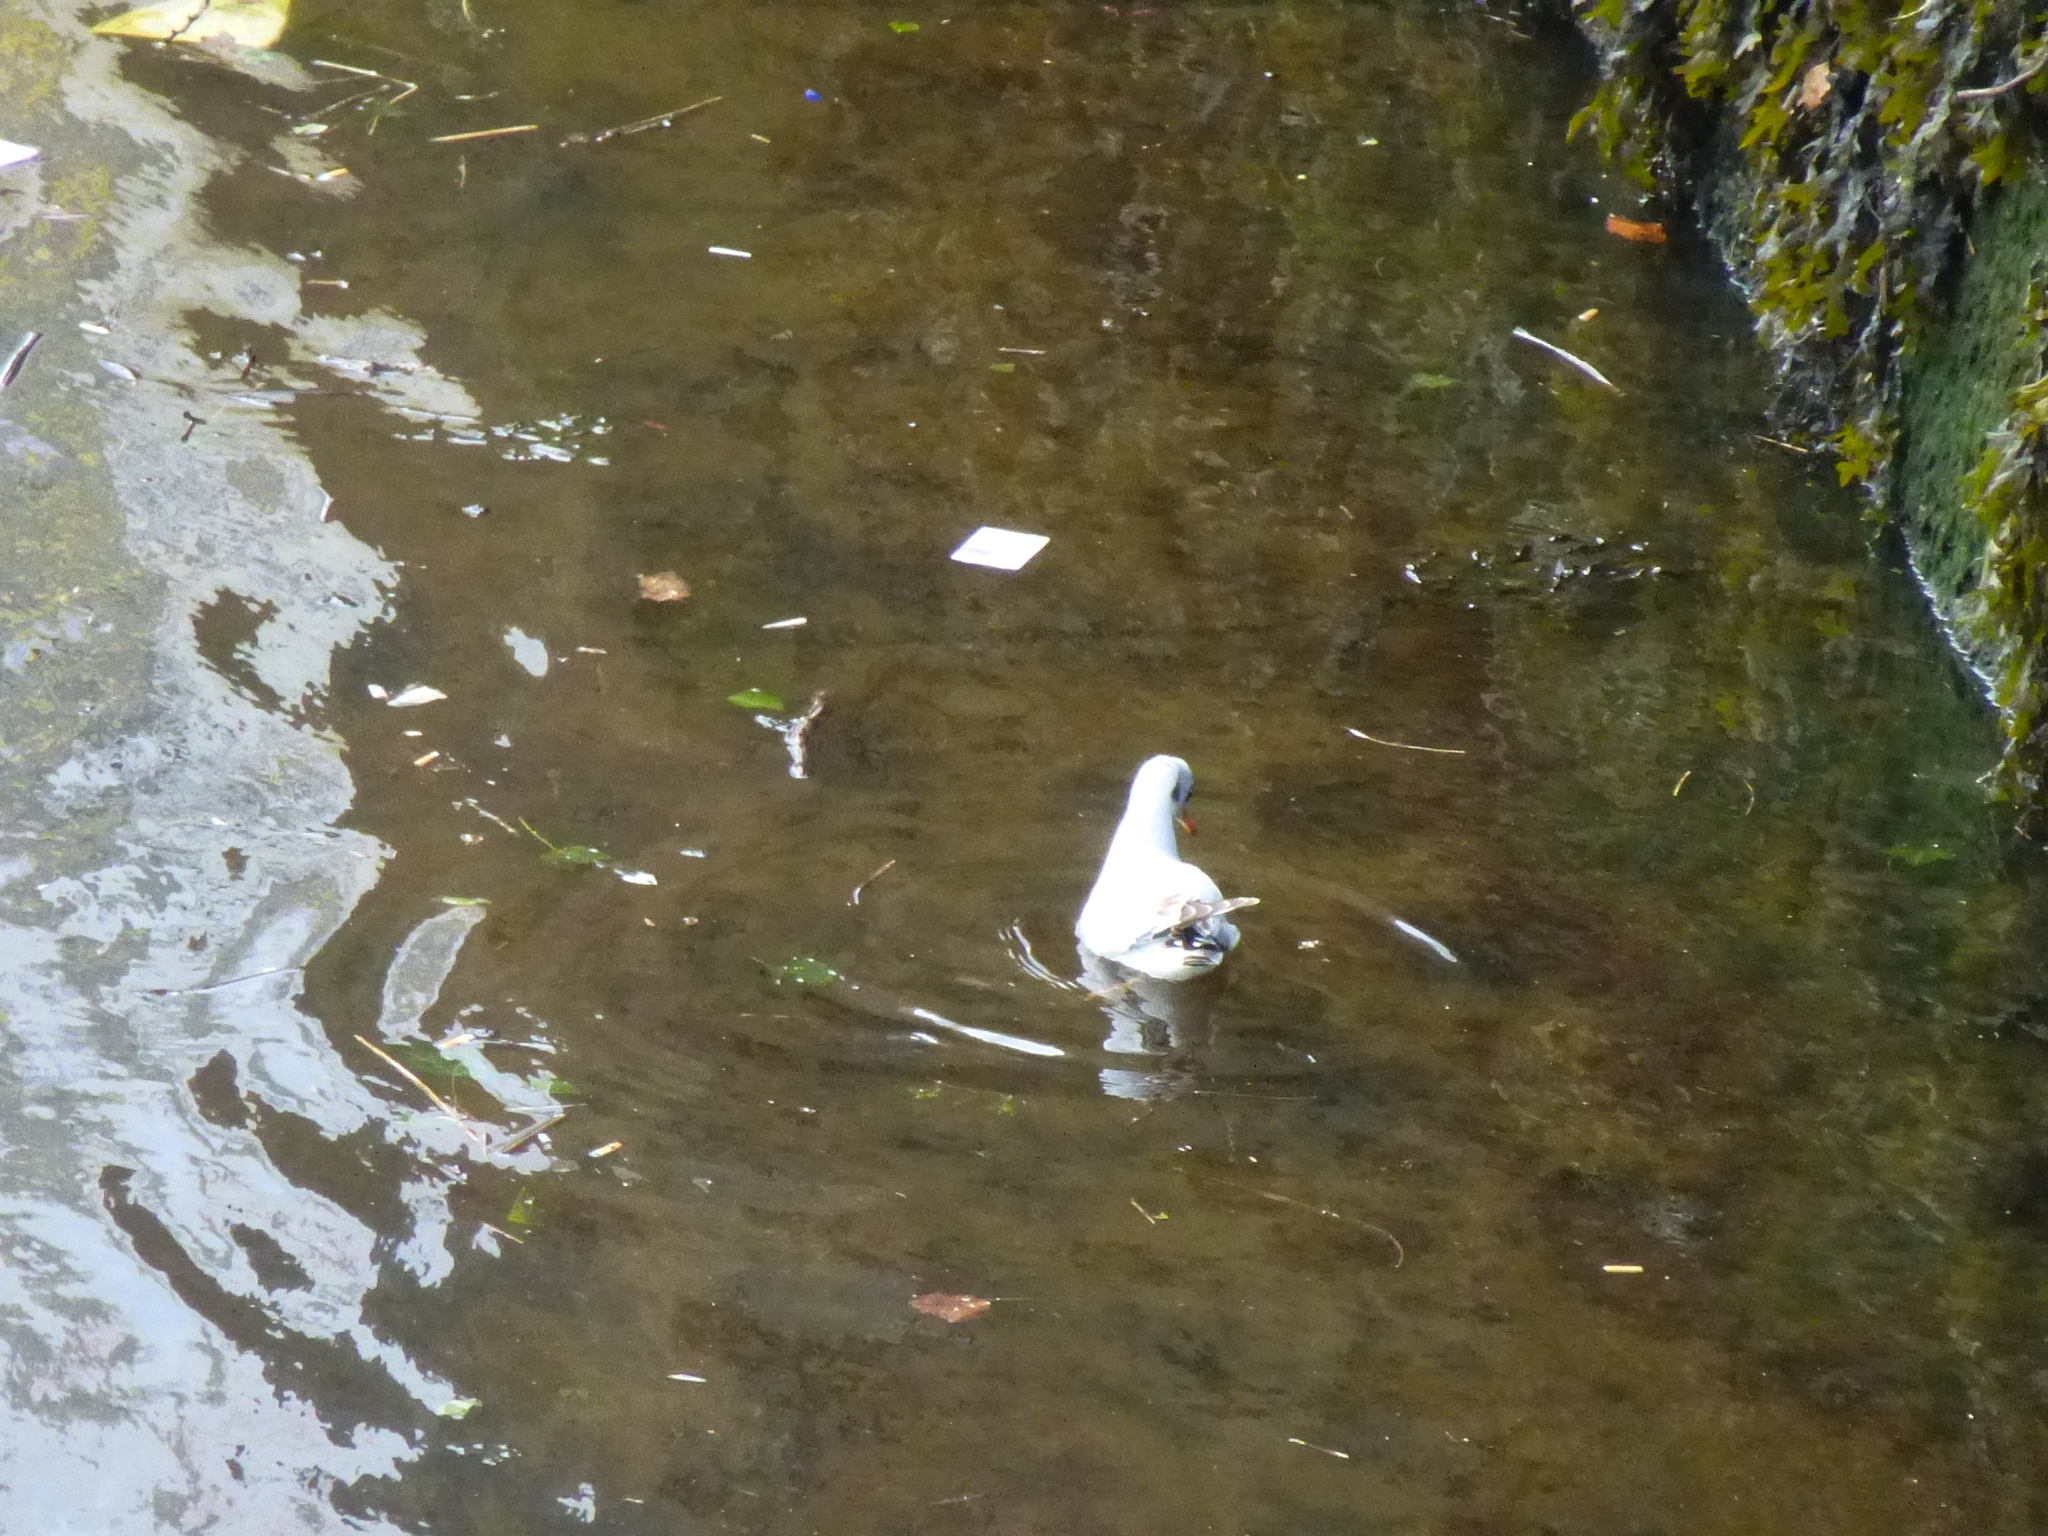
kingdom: Animalia
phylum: Chordata
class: Aves
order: Charadriiformes
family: Laridae
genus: Chroicocephalus
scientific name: Chroicocephalus ridibundus
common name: Black-headed gull
